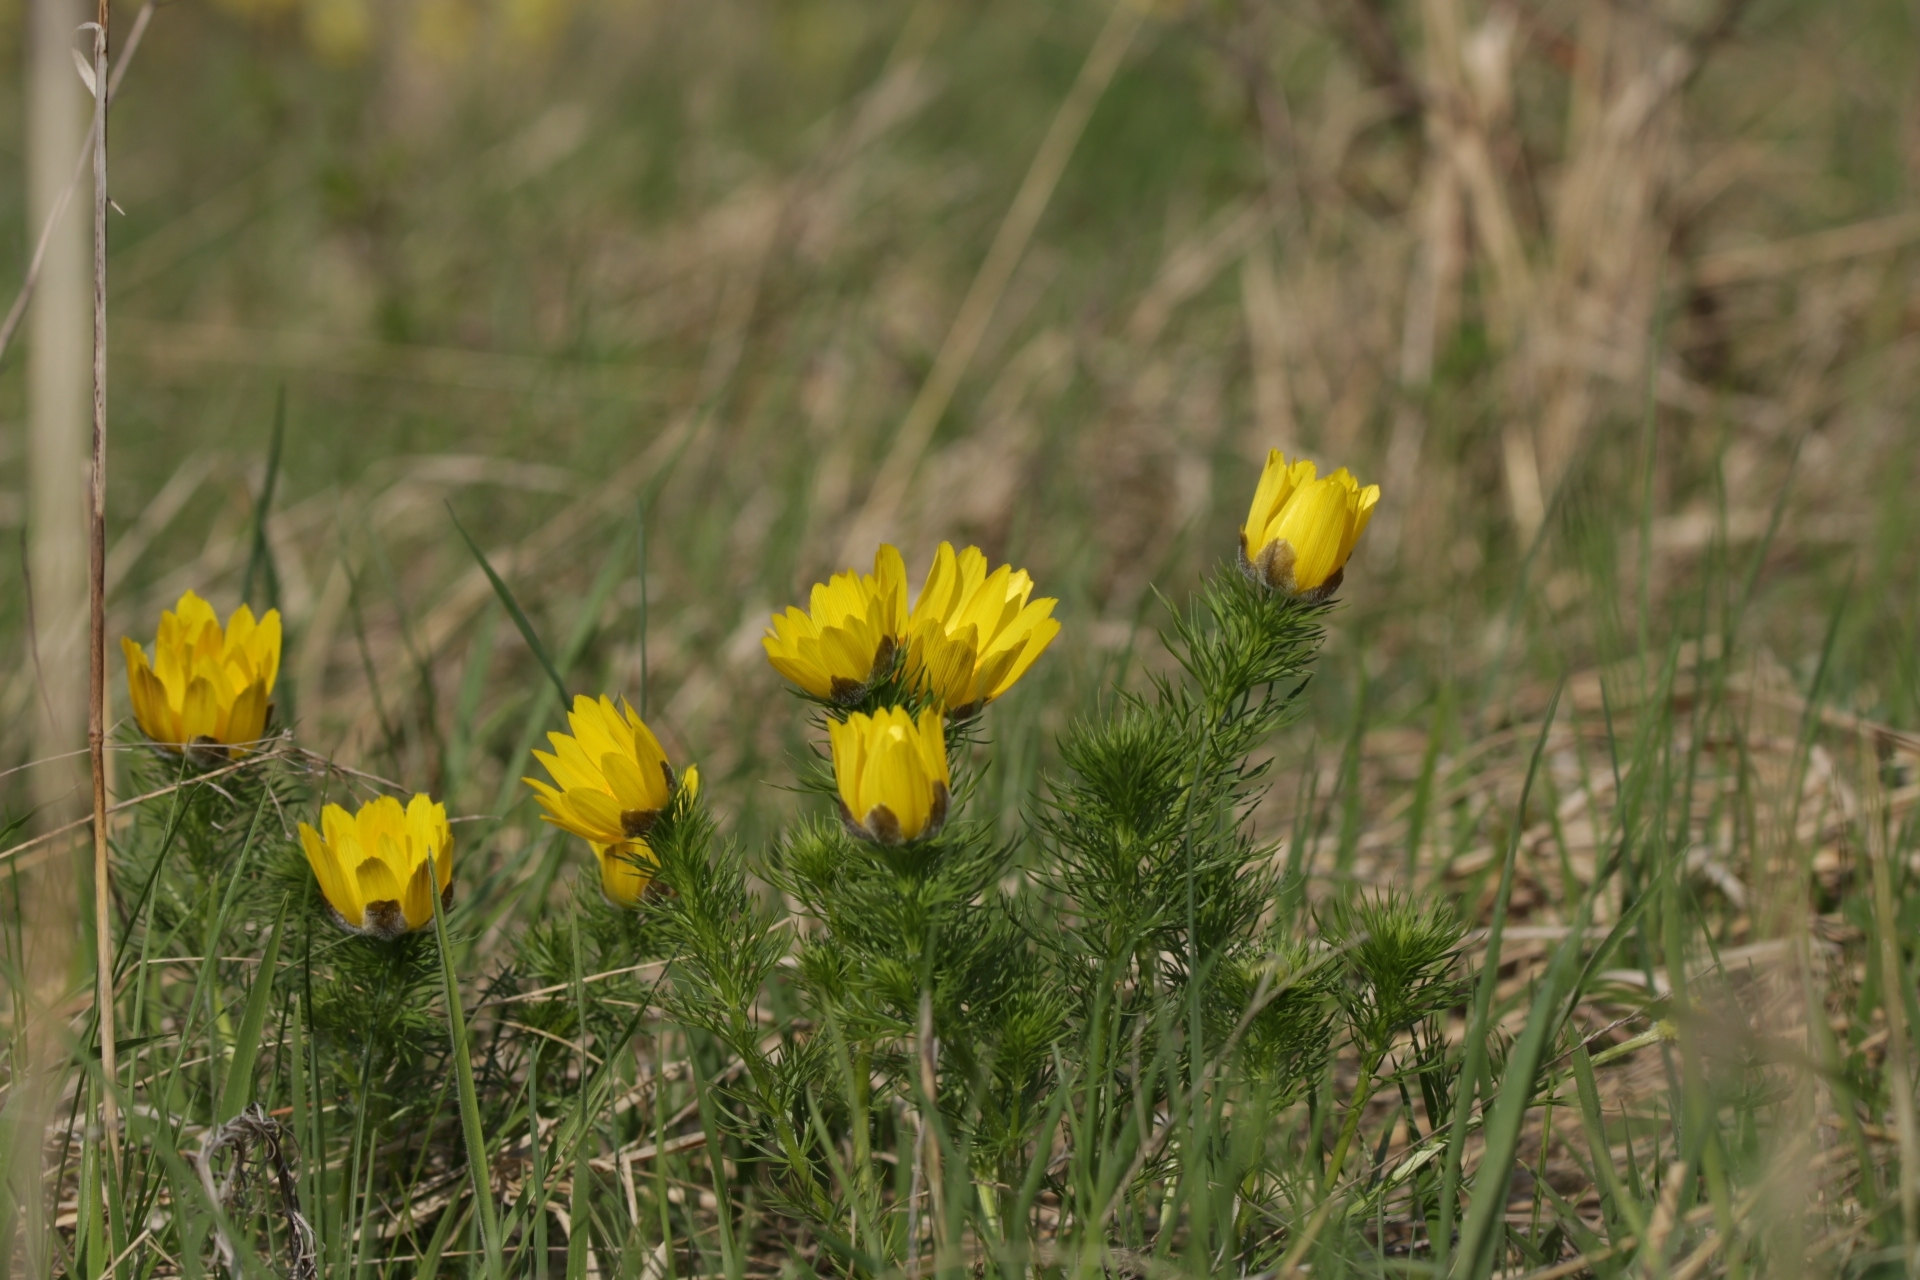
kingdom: Plantae
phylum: Tracheophyta
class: Magnoliopsida
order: Ranunculales
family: Ranunculaceae
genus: Adonis
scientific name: Adonis vernalis
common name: Yellow pheasants-eye
